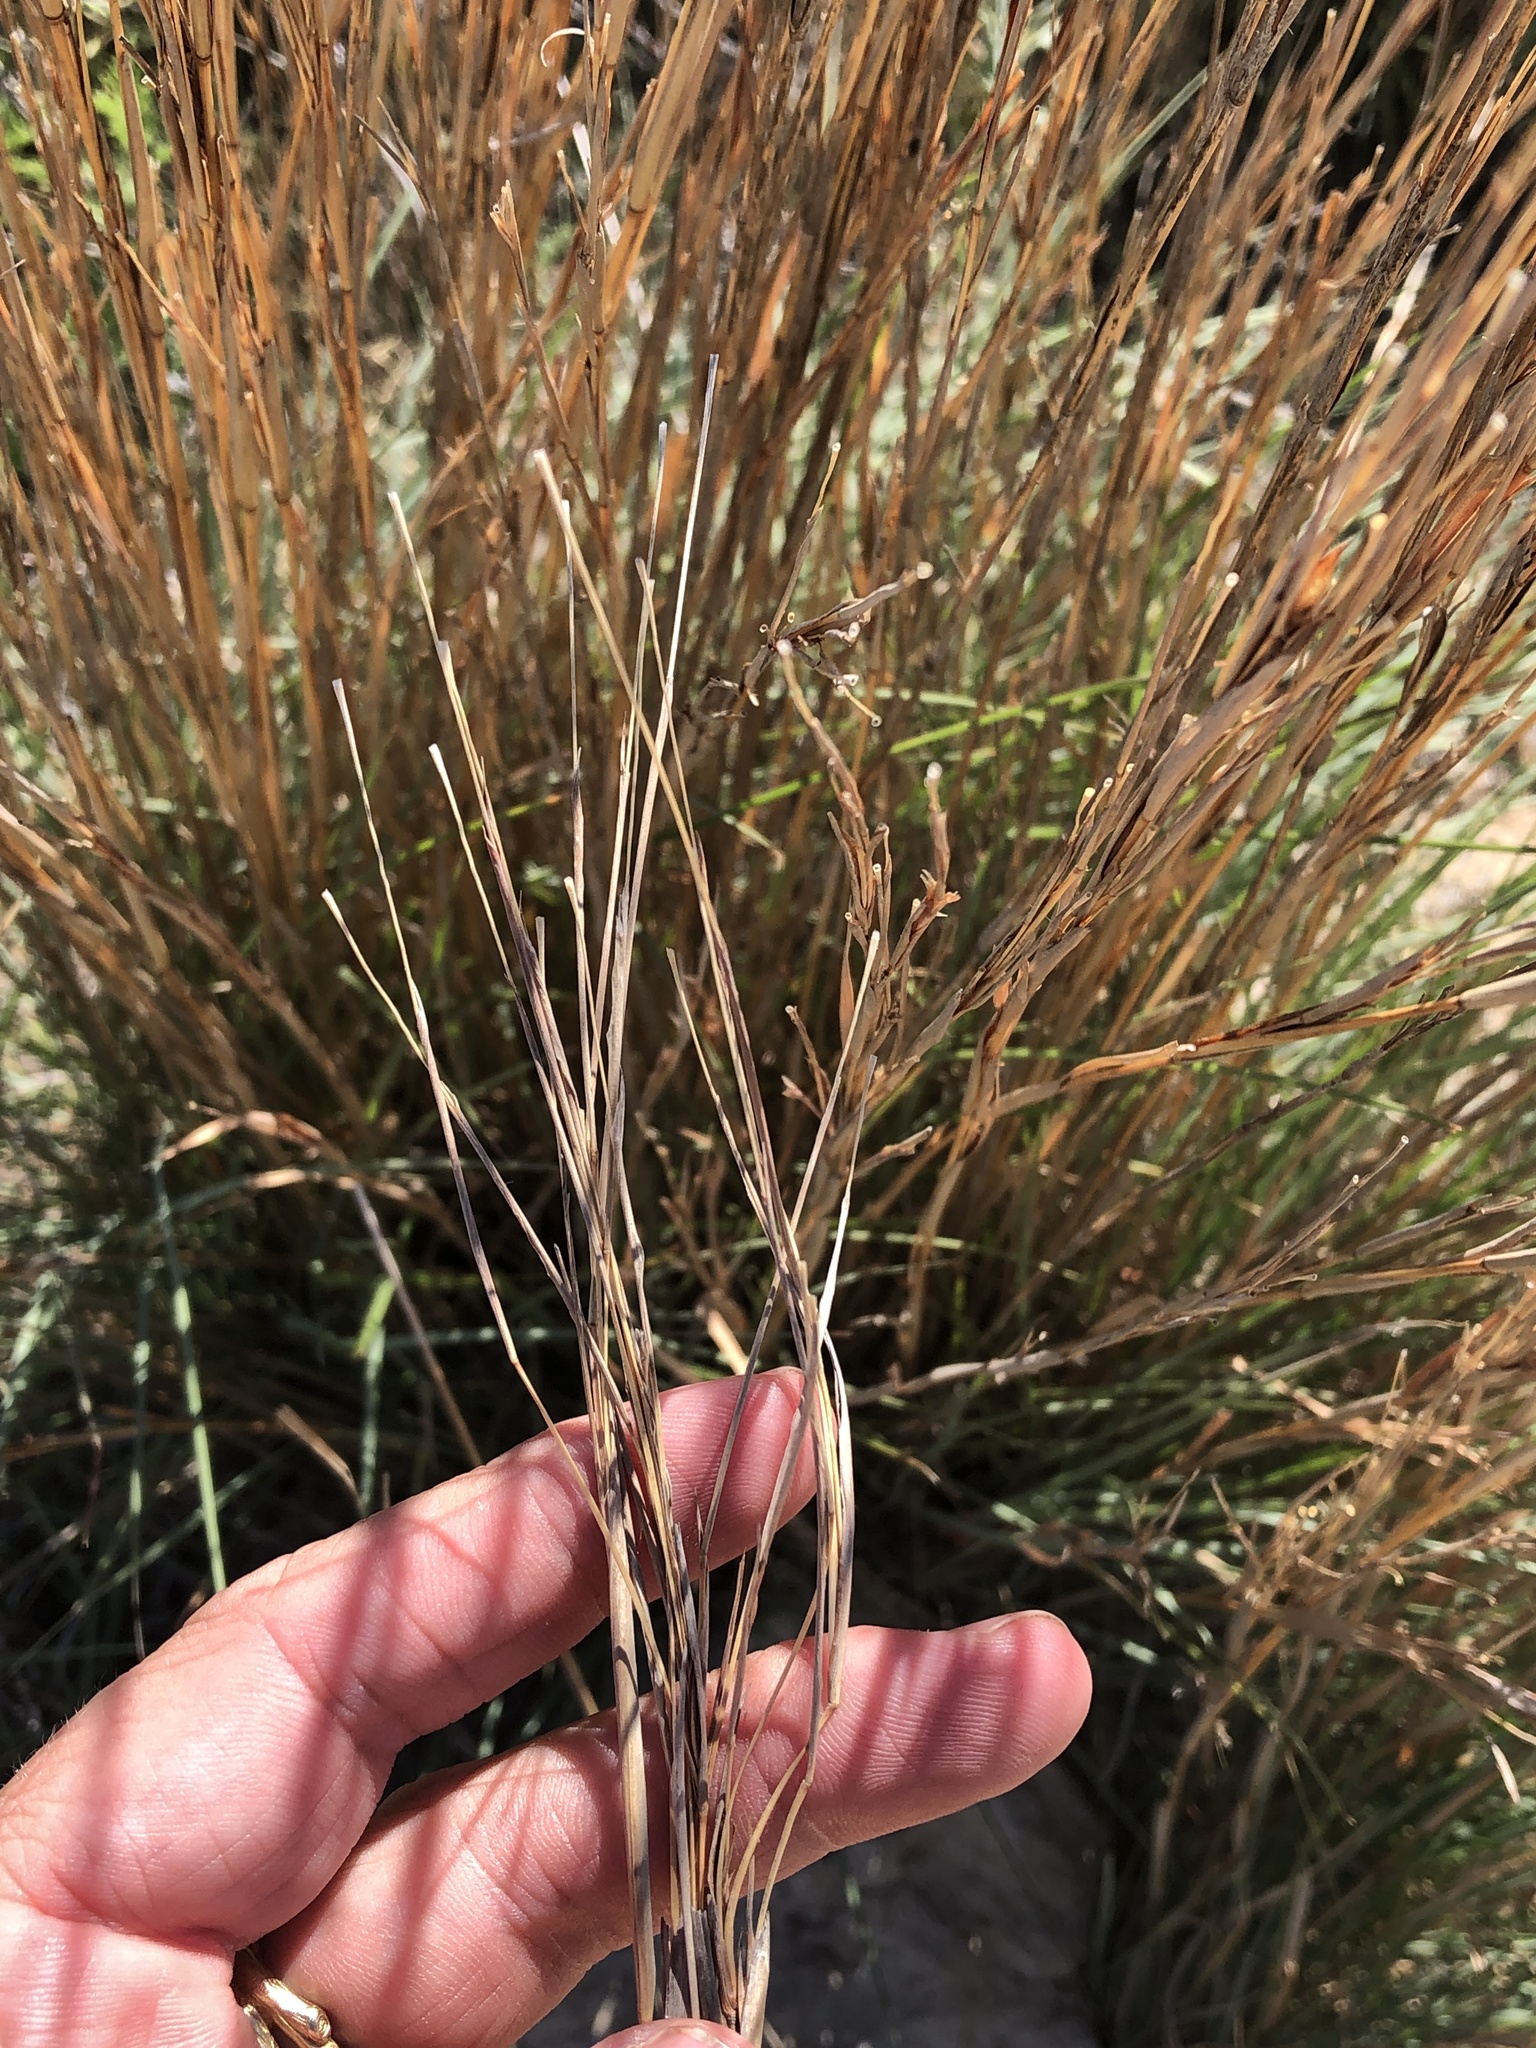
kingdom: Plantae
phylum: Tracheophyta
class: Liliopsida
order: Poales
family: Poaceae
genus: Schizachyrium
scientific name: Schizachyrium scoparium
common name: Little bluestem
